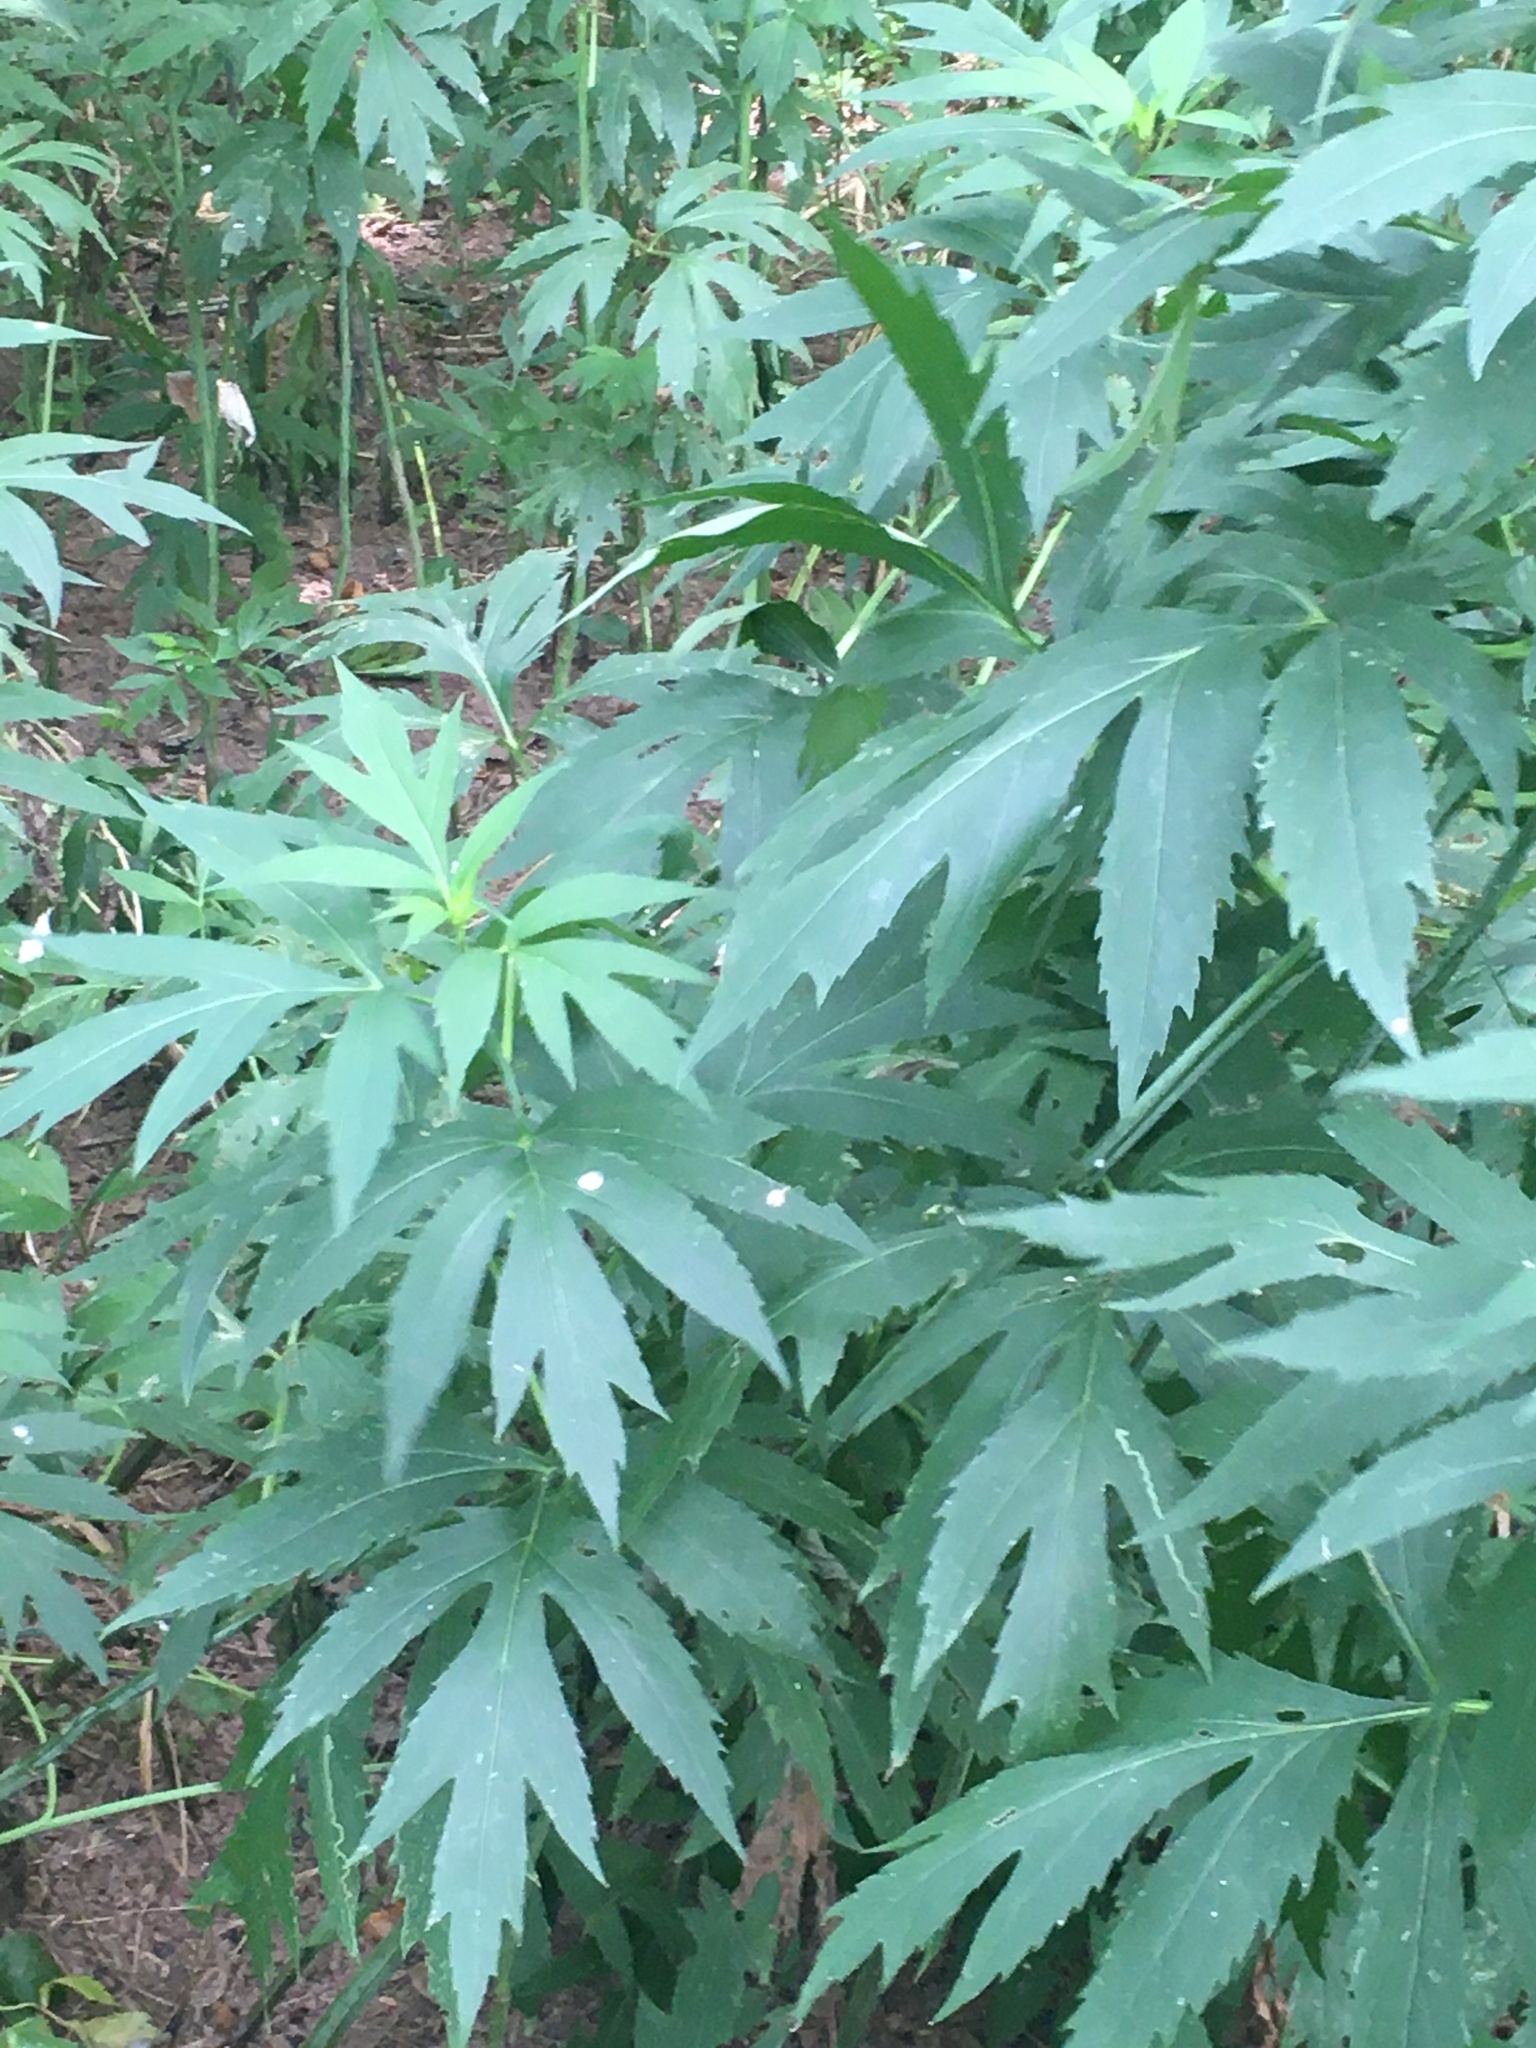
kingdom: Plantae
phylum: Tracheophyta
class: Magnoliopsida
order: Asterales
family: Asteraceae
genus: Rudbeckia
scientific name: Rudbeckia laciniata
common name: Coneflower
